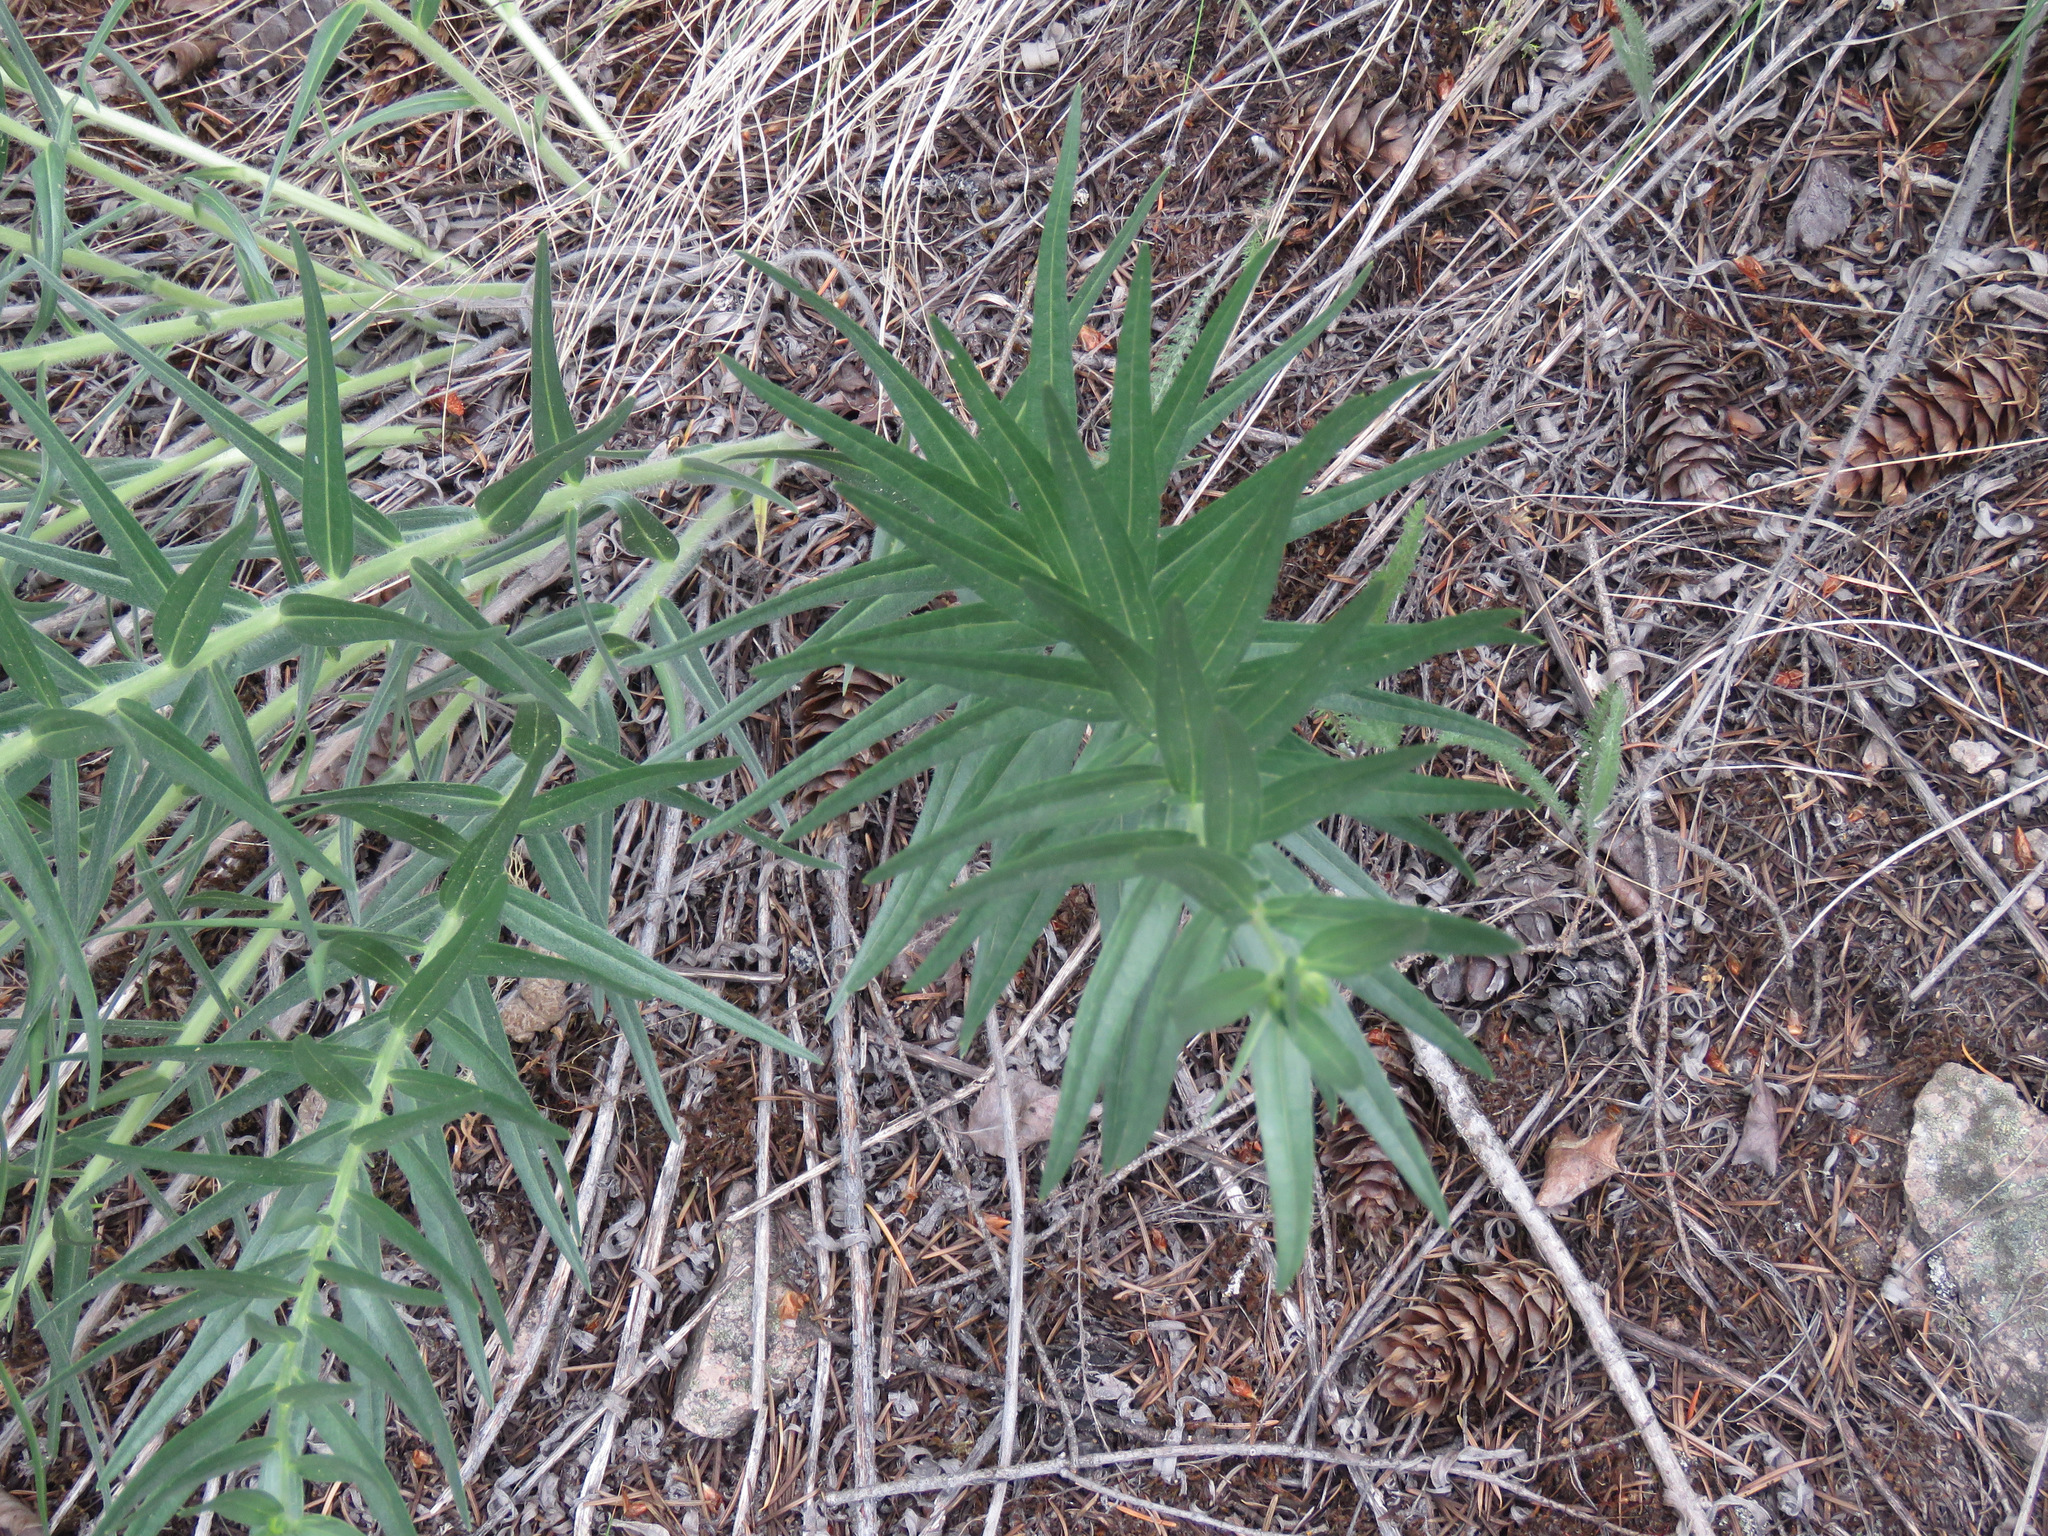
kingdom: Plantae
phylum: Tracheophyta
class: Magnoliopsida
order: Boraginales
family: Boraginaceae
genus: Lithospermum
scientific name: Lithospermum ruderale
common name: Western gromwell
